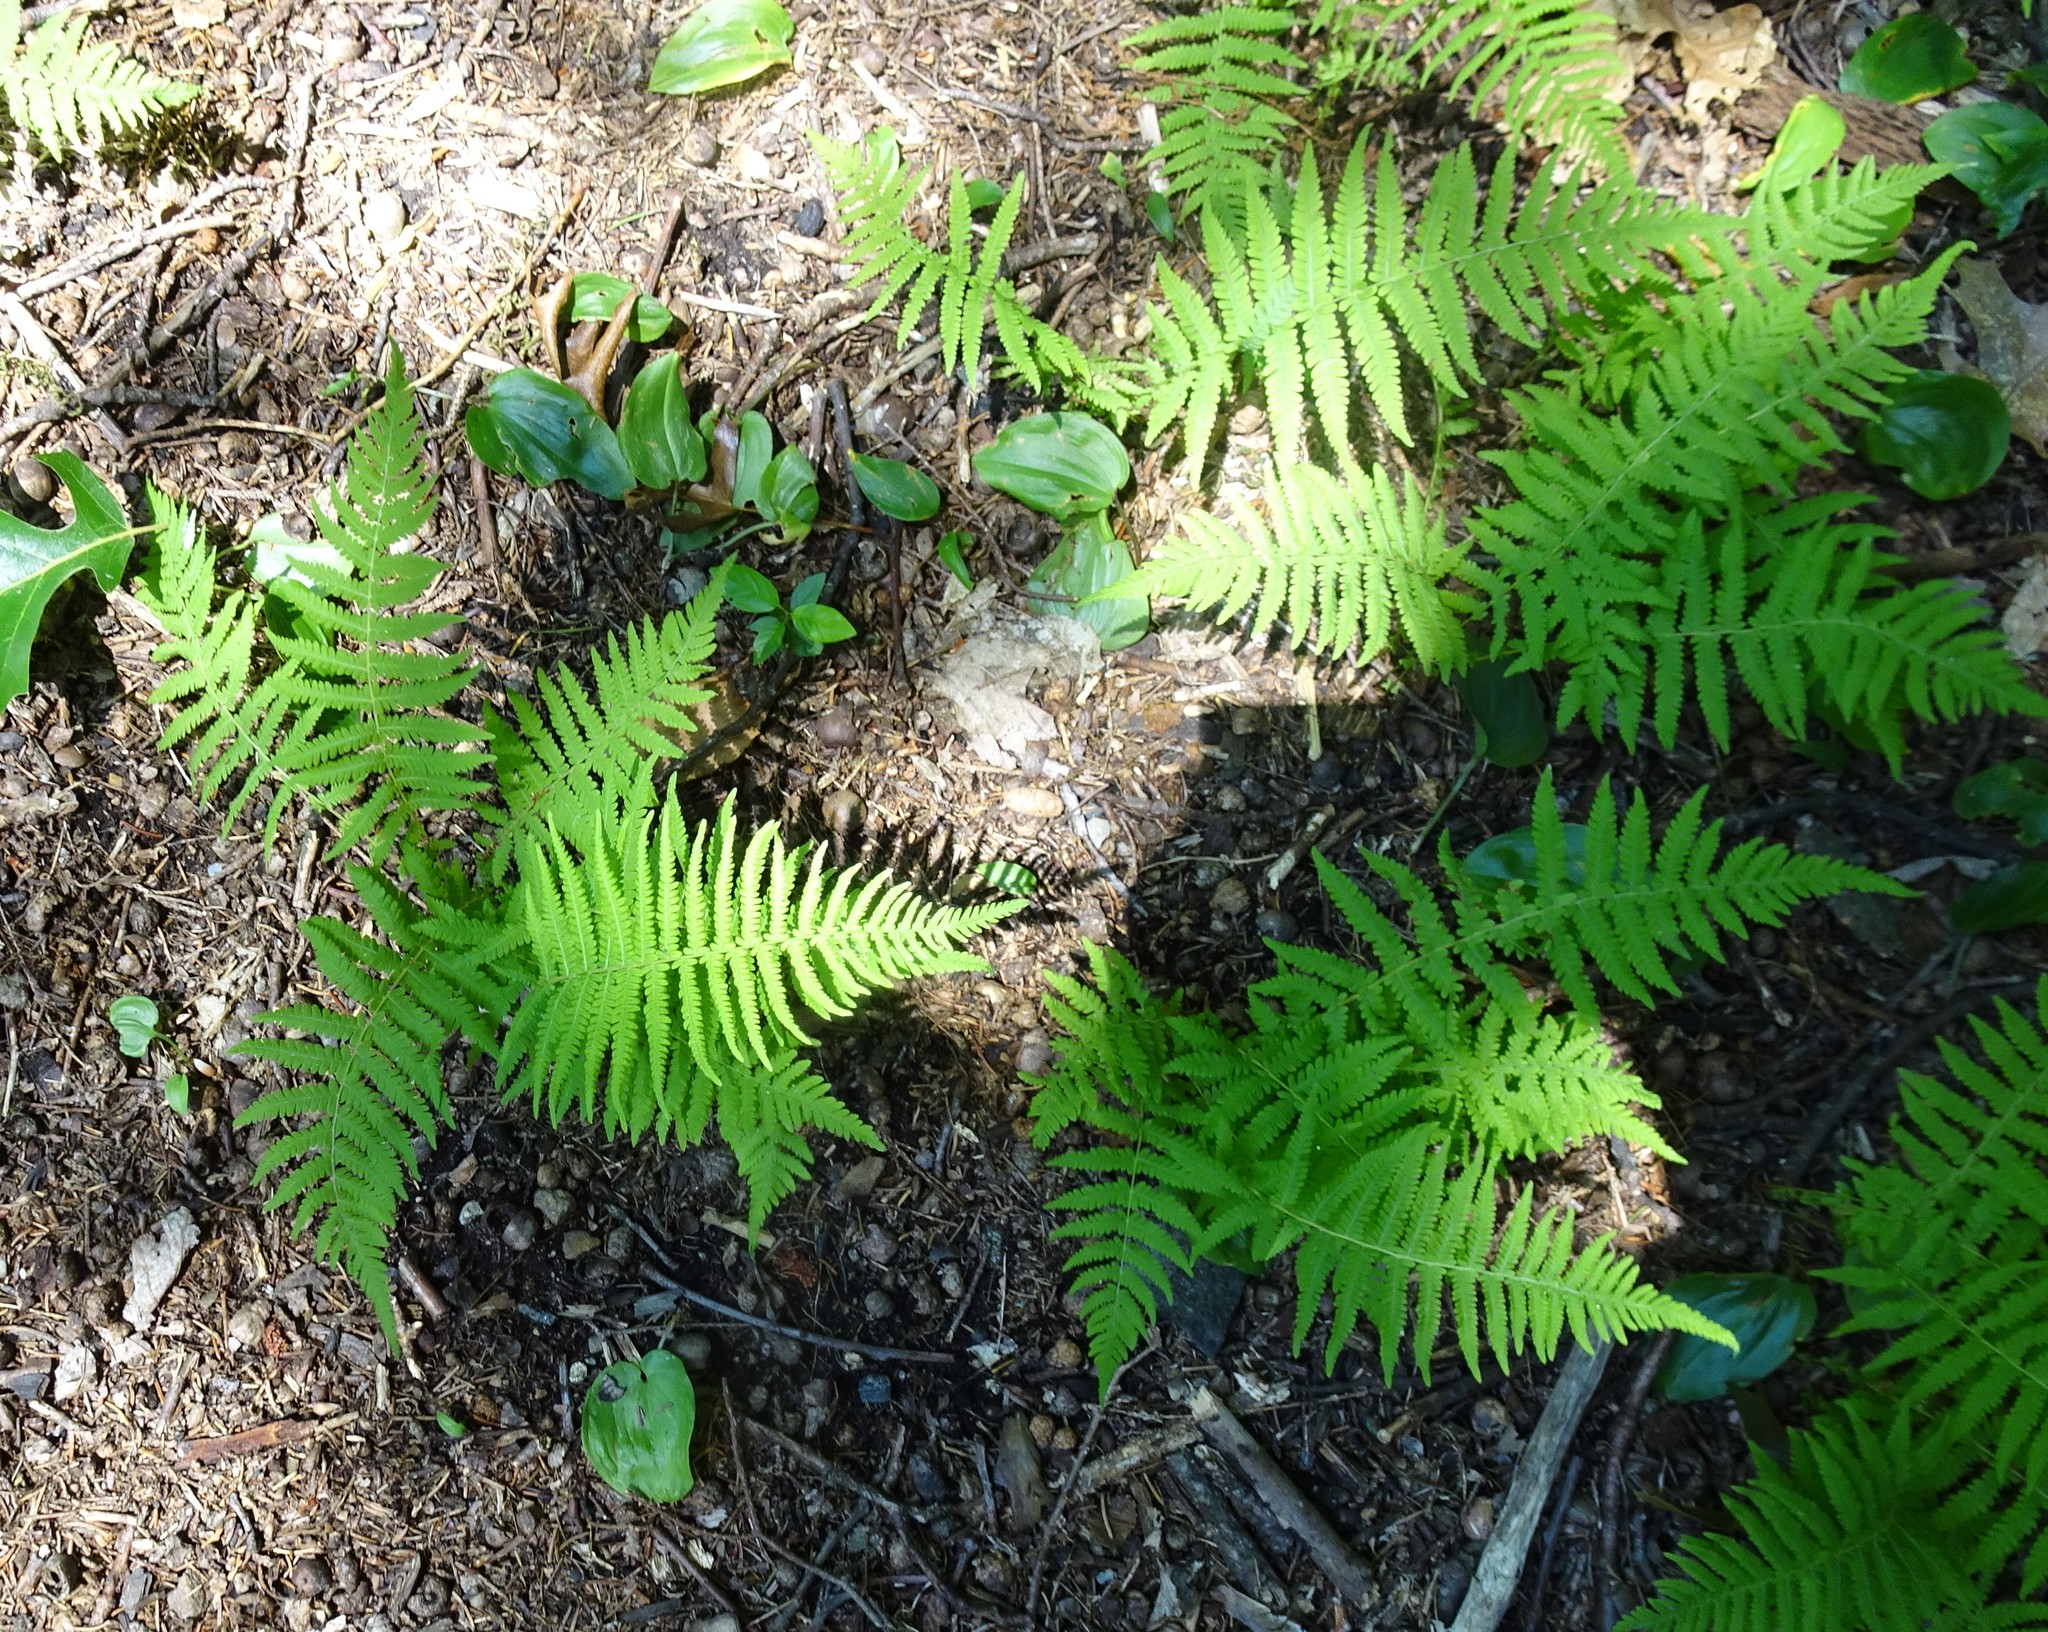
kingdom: Plantae
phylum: Tracheophyta
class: Polypodiopsida
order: Polypodiales
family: Thelypteridaceae
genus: Amauropelta
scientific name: Amauropelta noveboracensis
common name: New york fern
